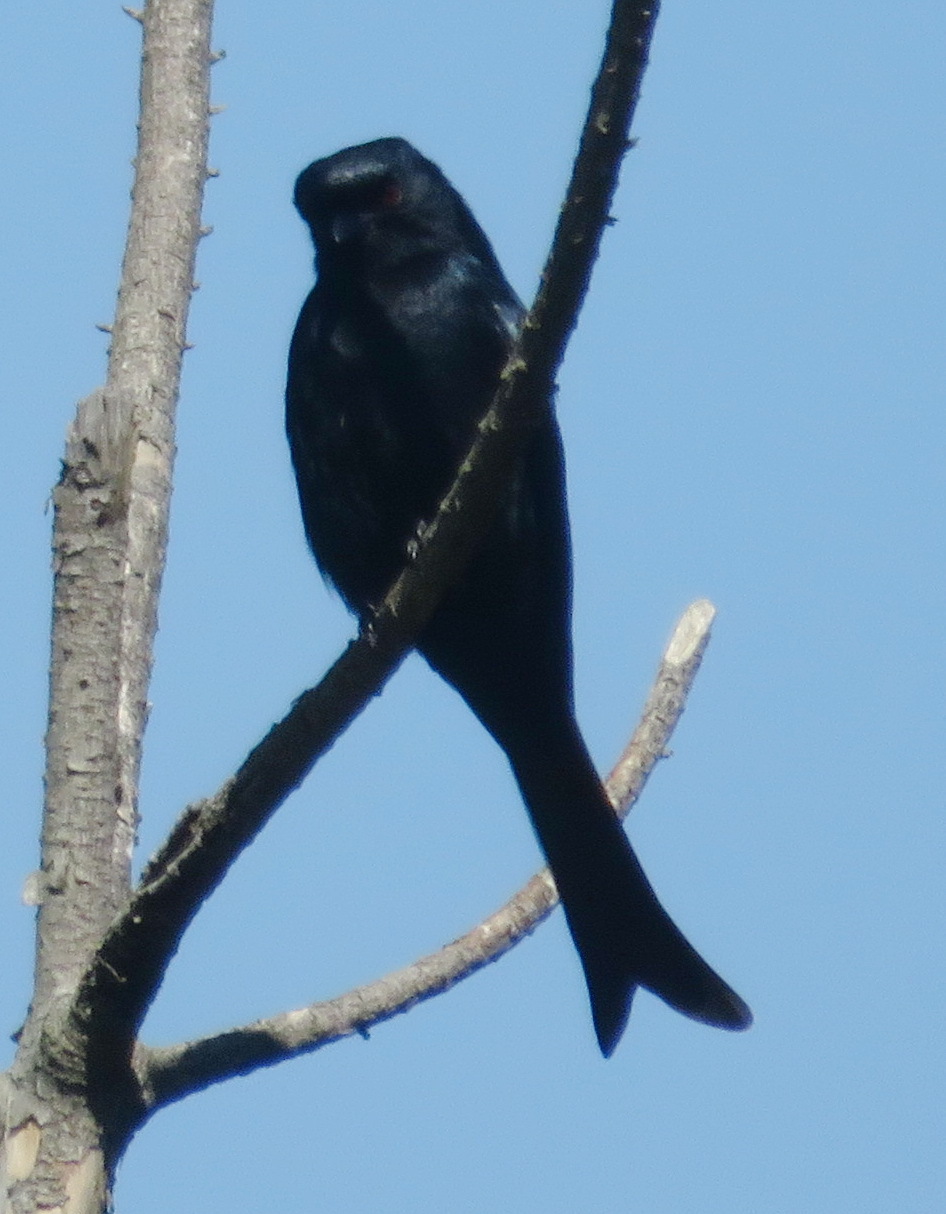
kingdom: Animalia
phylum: Chordata
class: Aves
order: Passeriformes
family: Dicruridae
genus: Dicrurus
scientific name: Dicrurus adsimilis
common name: Fork-tailed drongo
